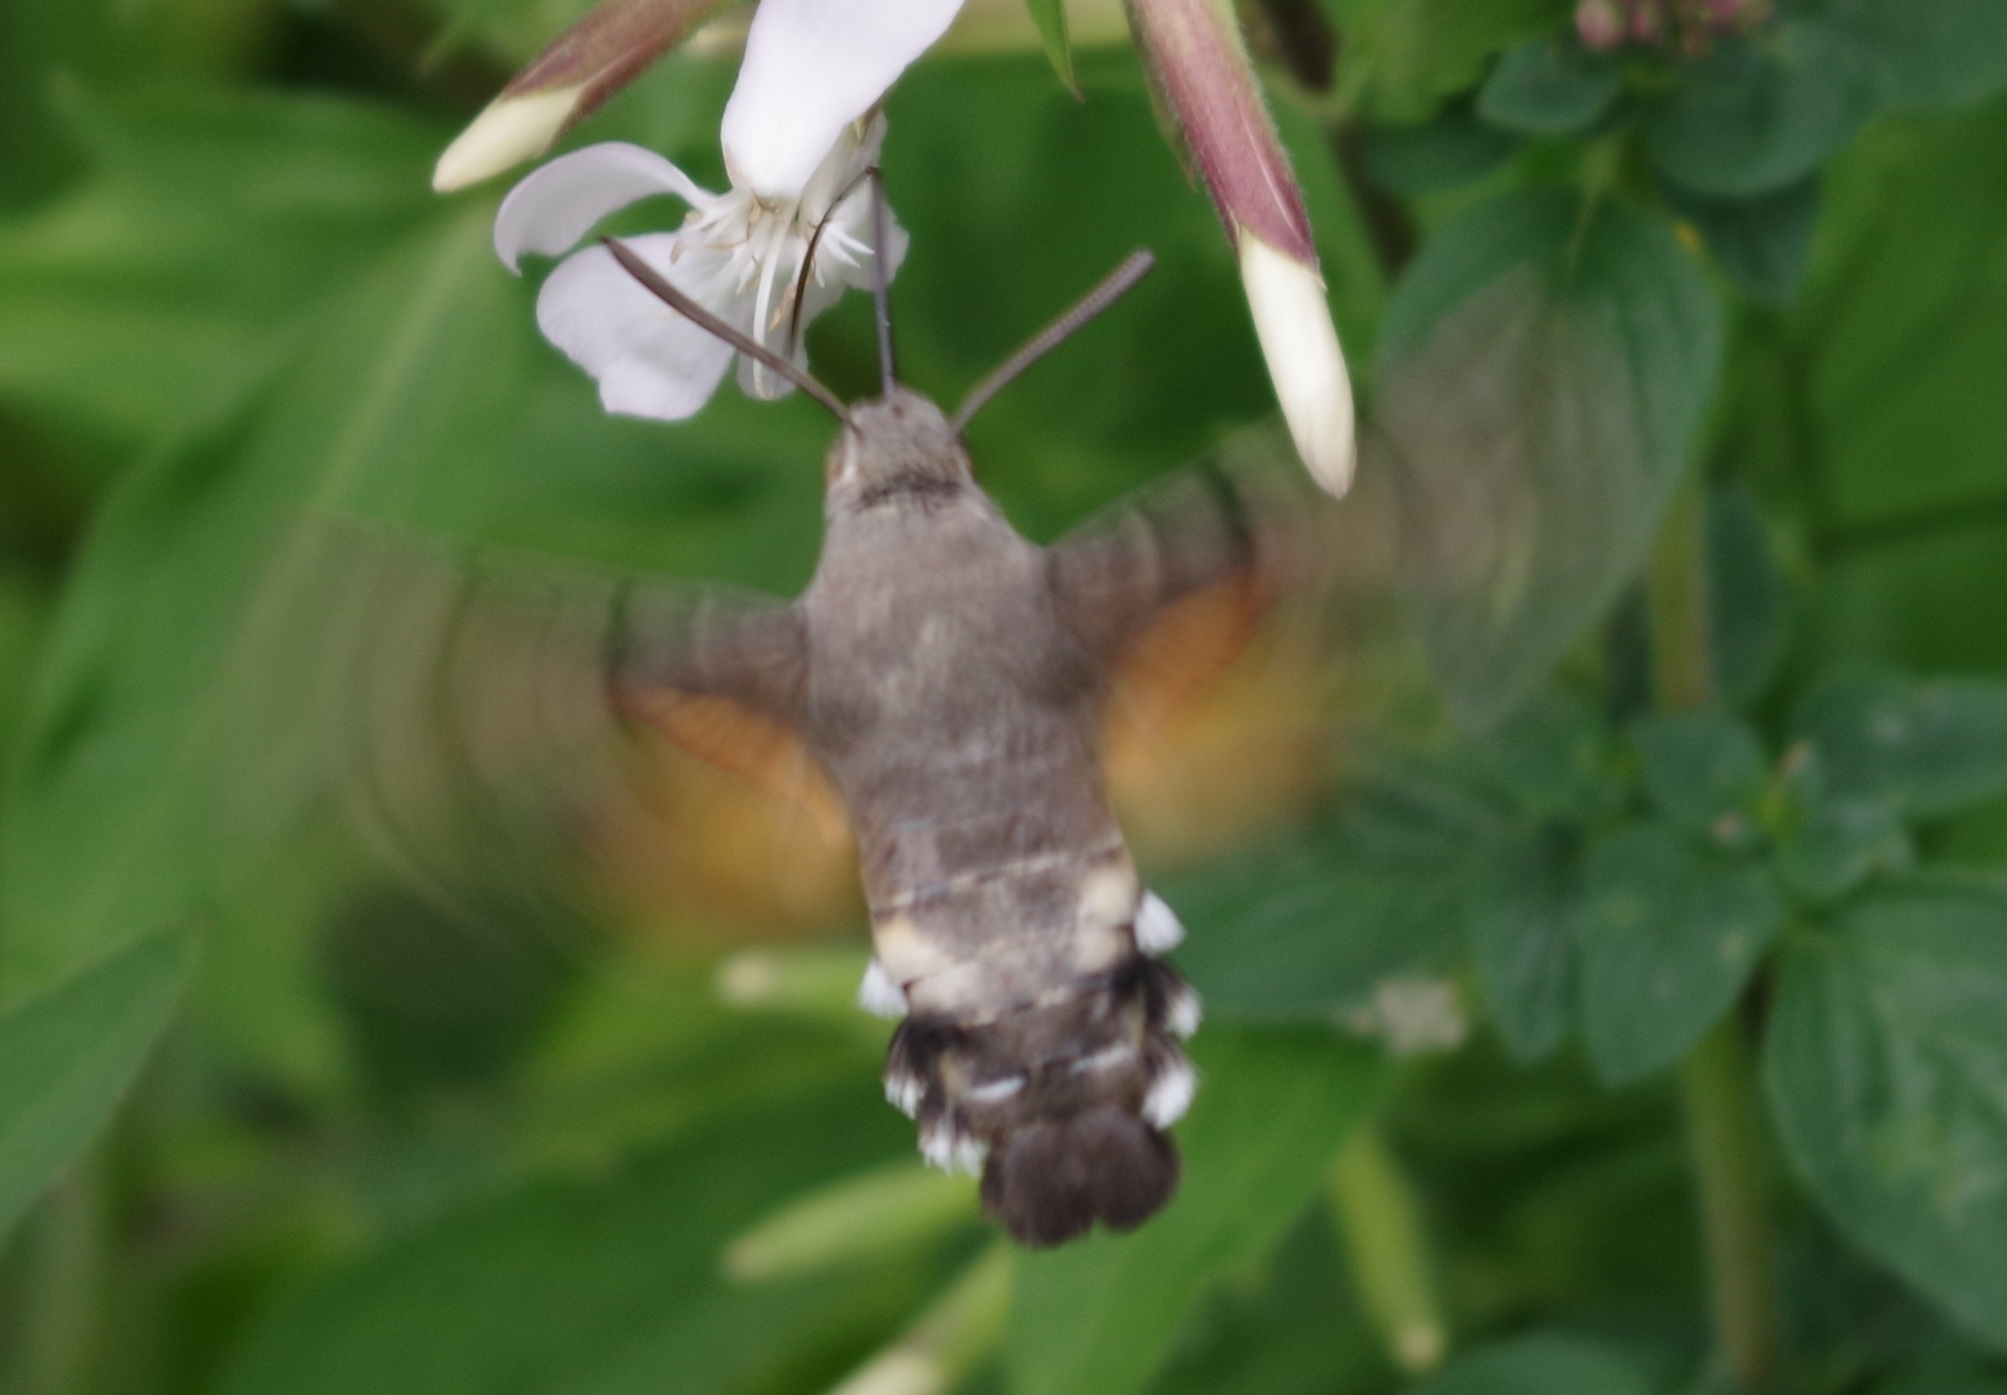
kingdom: Animalia
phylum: Arthropoda
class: Insecta
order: Lepidoptera
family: Sphingidae
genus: Macroglossum
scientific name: Macroglossum stellatarum
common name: Humming-bird hawk-moth
